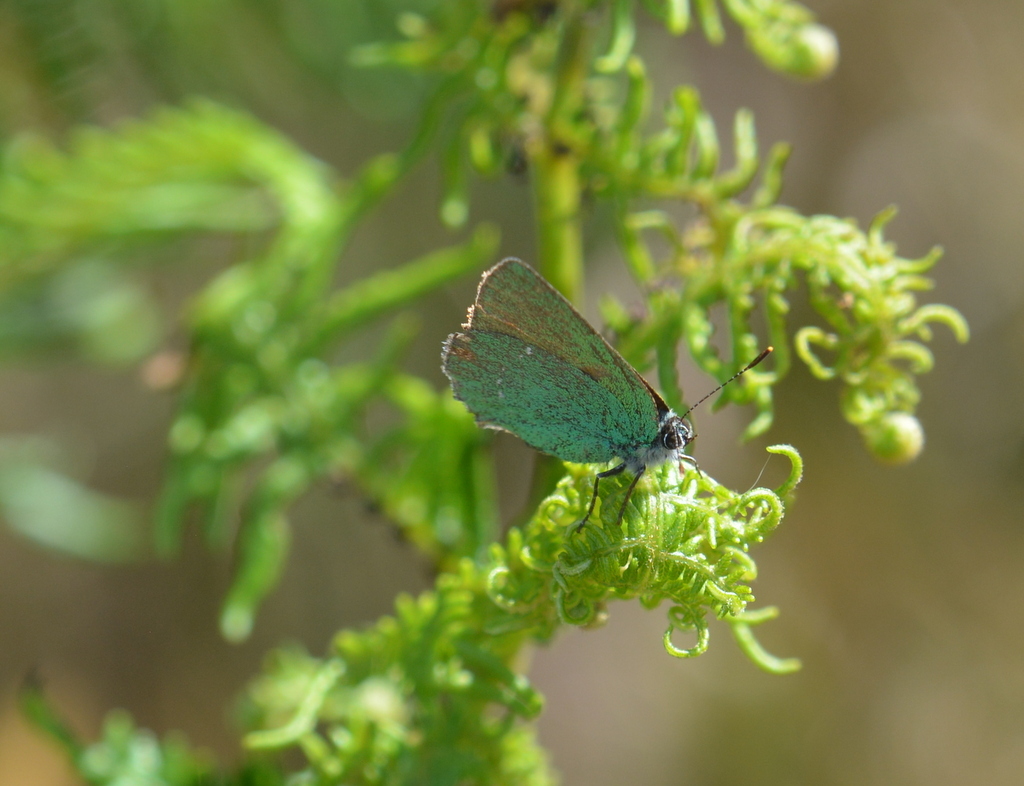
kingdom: Animalia
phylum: Arthropoda
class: Insecta
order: Lepidoptera
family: Lycaenidae
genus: Callophrys
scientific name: Callophrys rubi
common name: Green hairstreak
